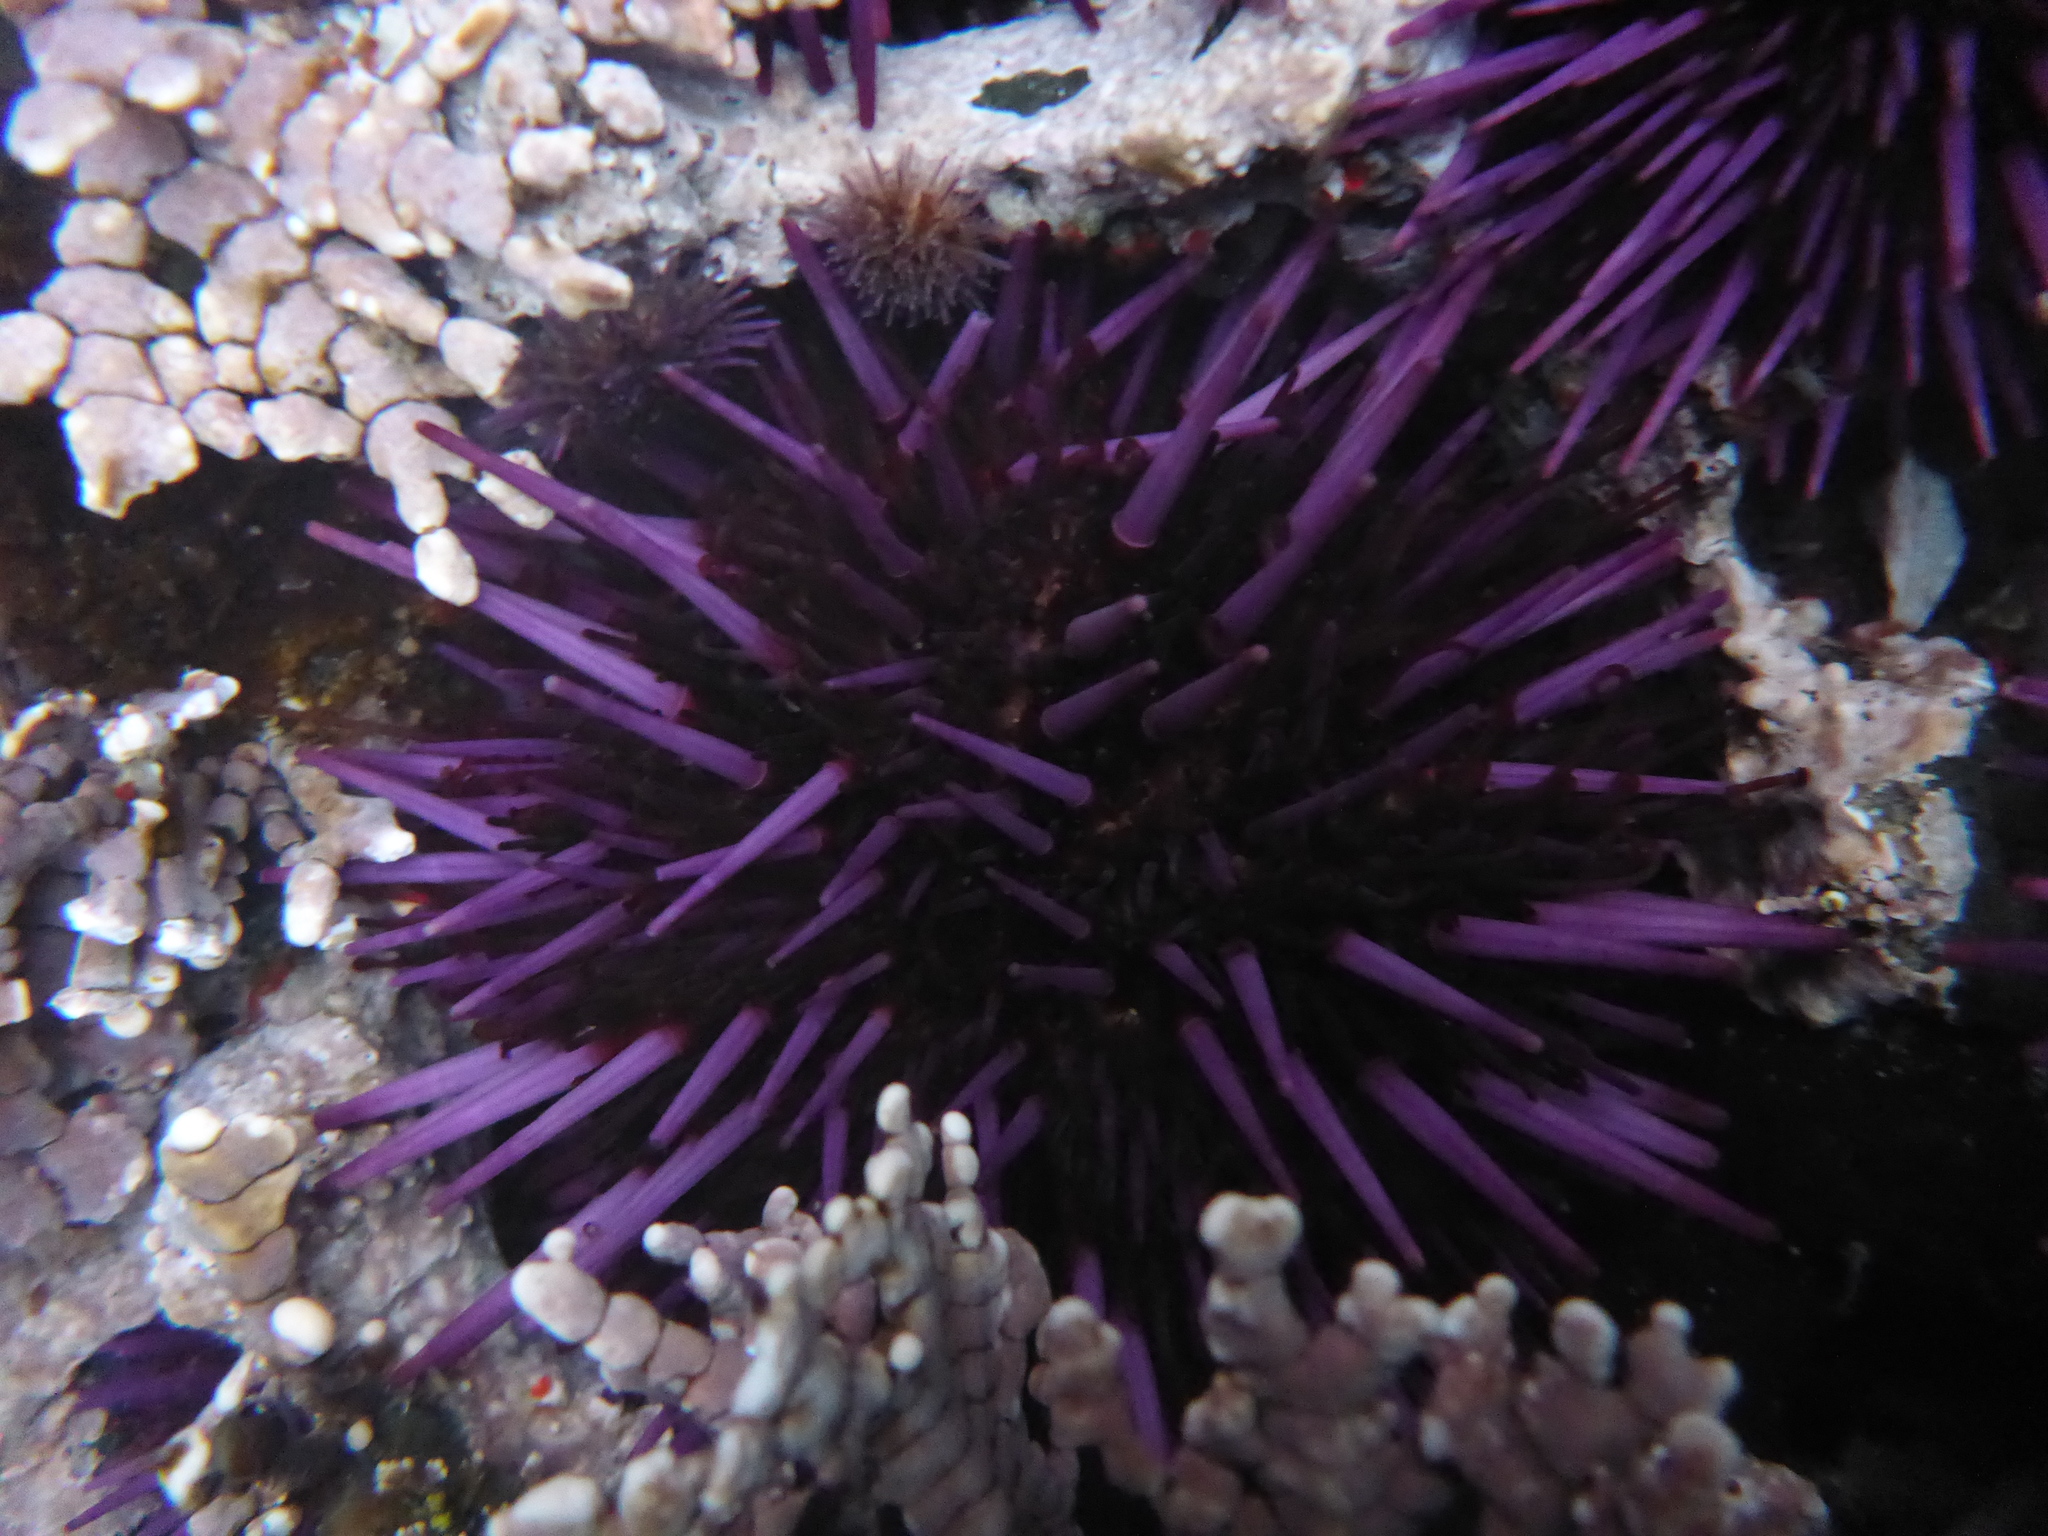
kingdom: Animalia
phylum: Echinodermata
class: Echinoidea
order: Camarodonta
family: Strongylocentrotidae
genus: Strongylocentrotus
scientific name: Strongylocentrotus purpuratus
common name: Purple sea urchin
